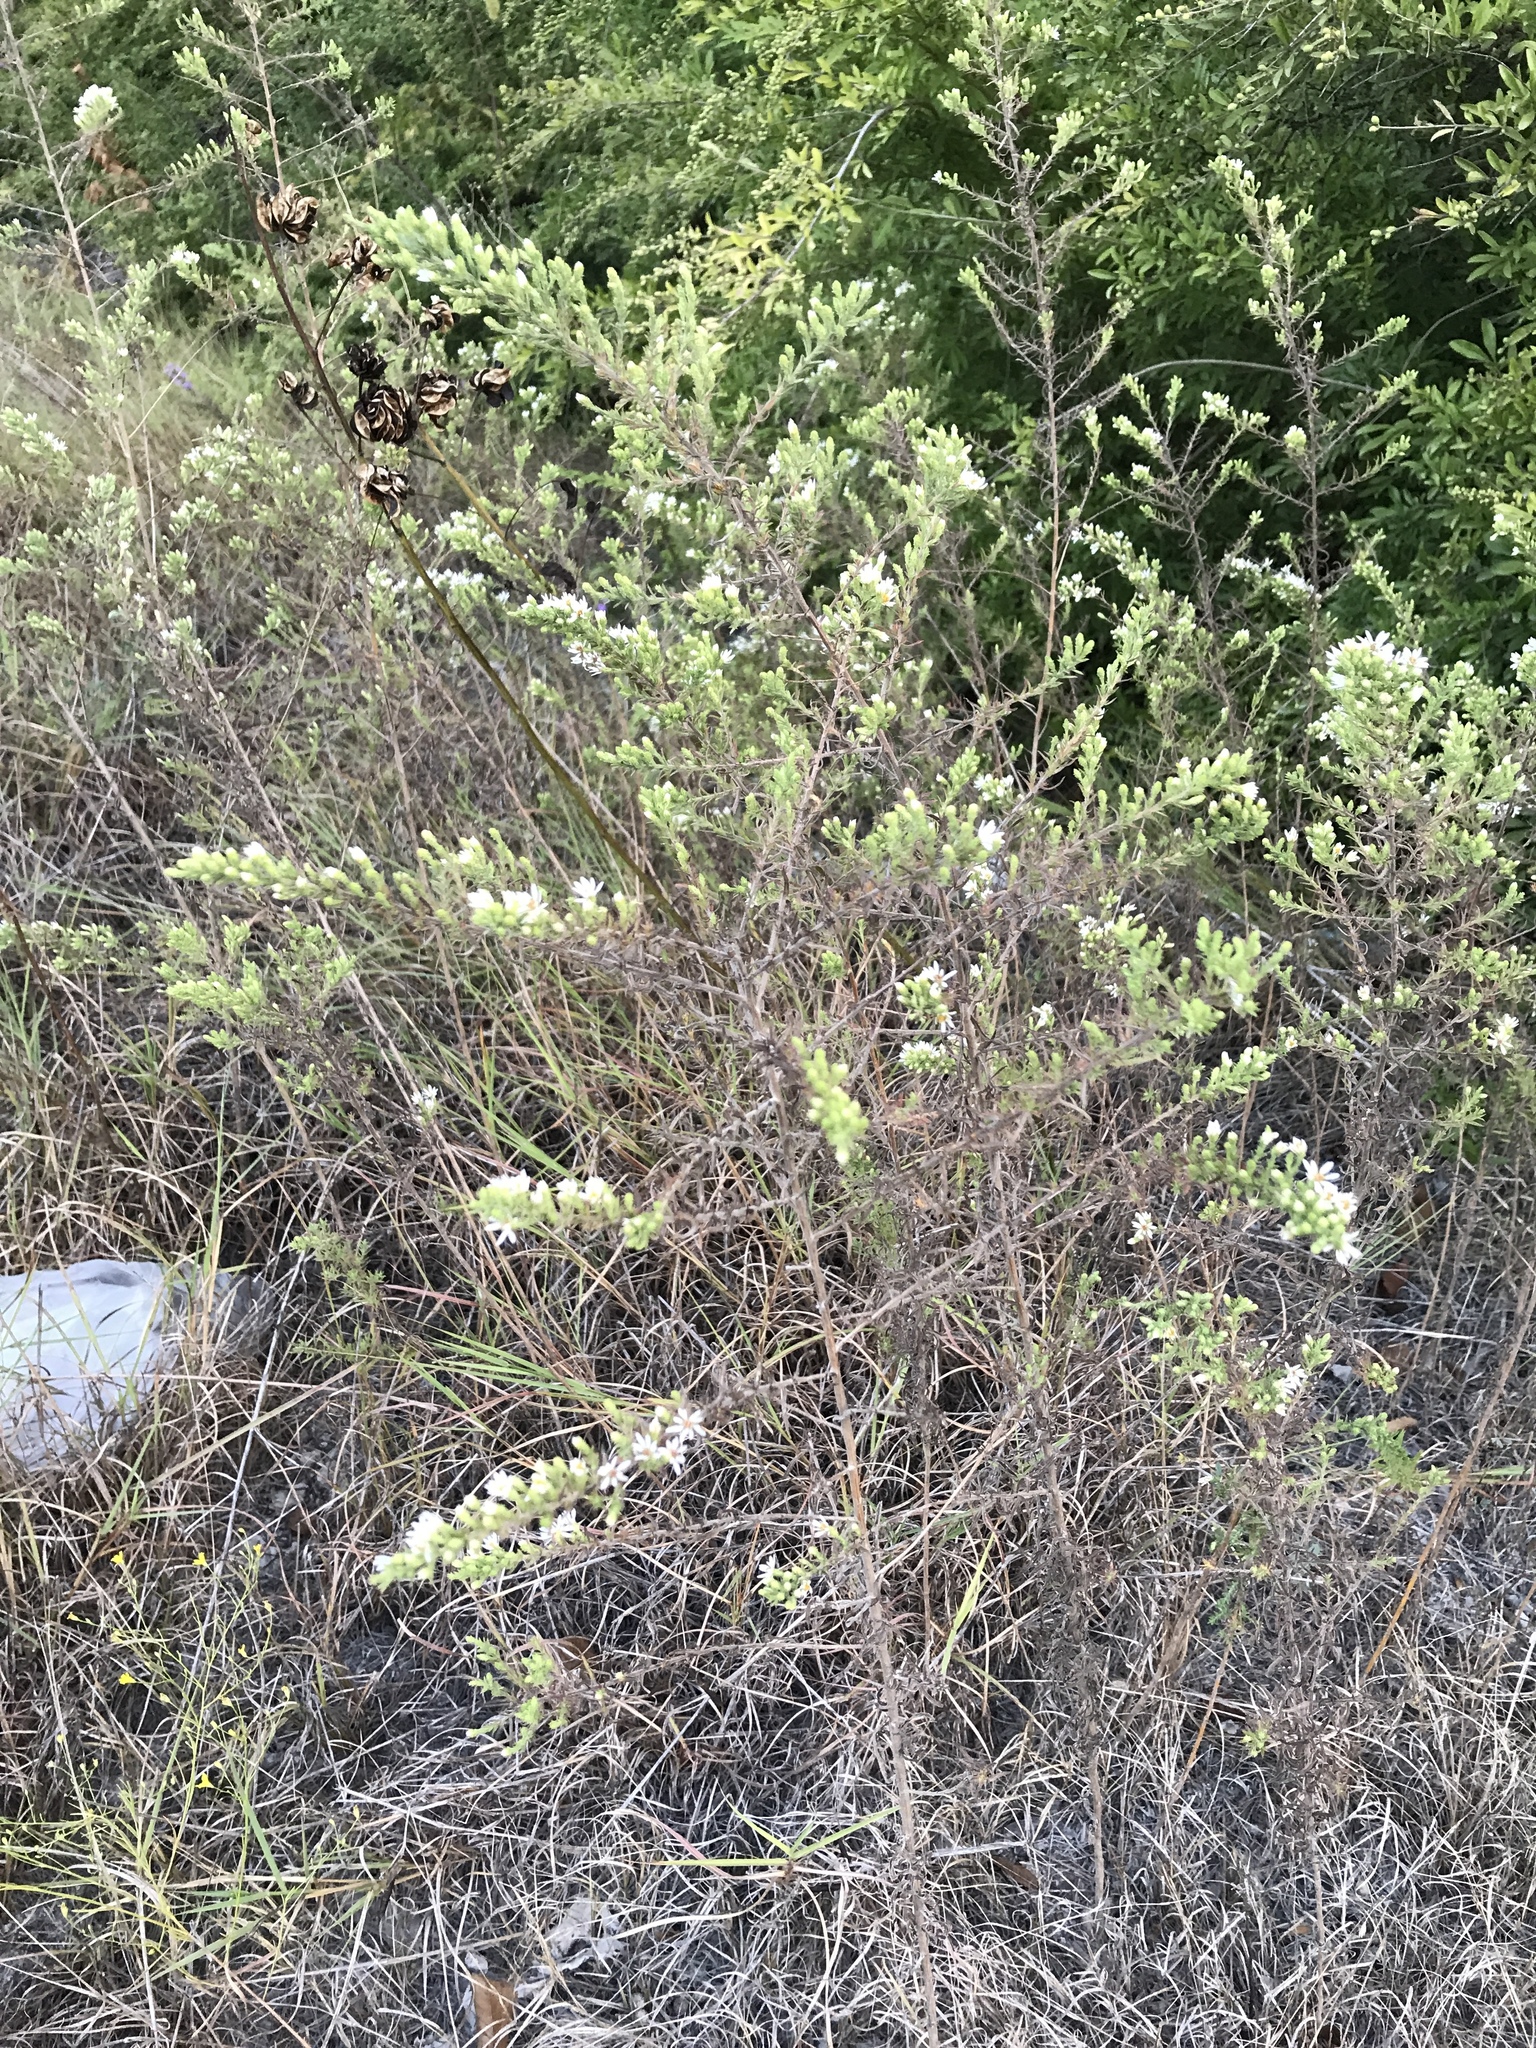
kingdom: Plantae
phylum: Tracheophyta
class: Magnoliopsida
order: Asterales
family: Asteraceae
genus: Symphyotrichum
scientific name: Symphyotrichum ericoides
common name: Heath aster
